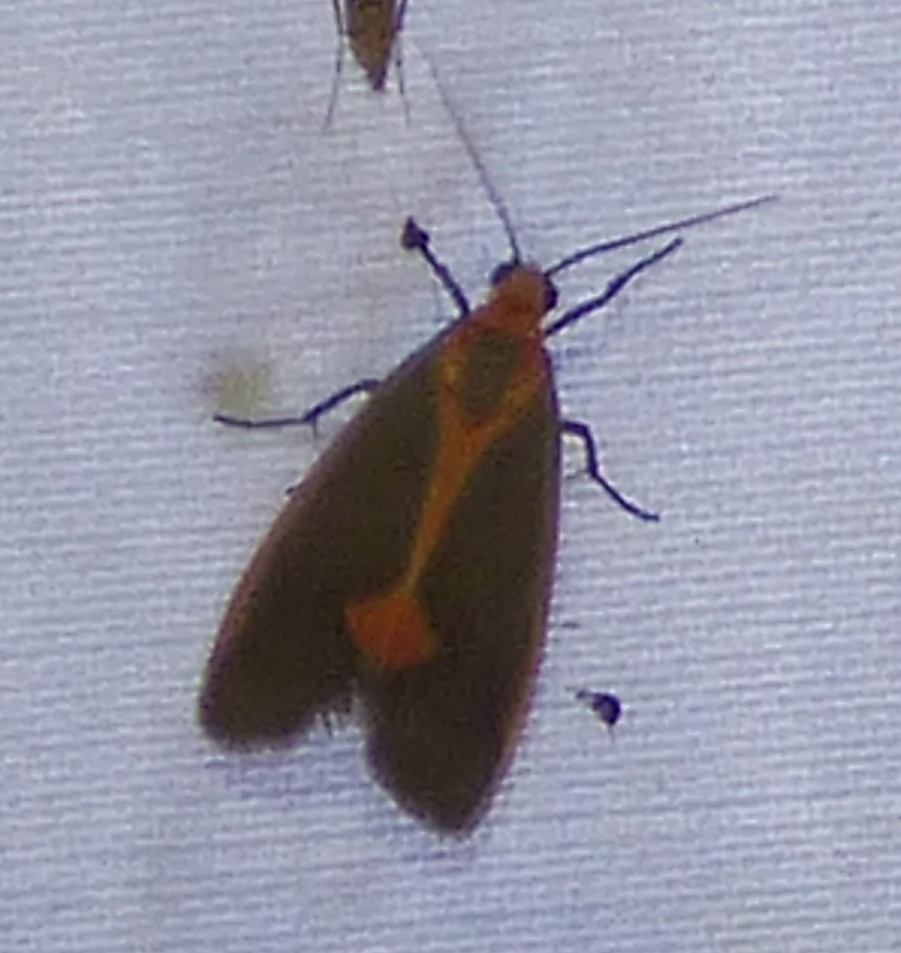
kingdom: Animalia
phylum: Arthropoda
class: Insecta
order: Lepidoptera
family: Erebidae
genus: Cisthene
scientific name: Cisthene plumbea
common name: Lead colored lichen moth
